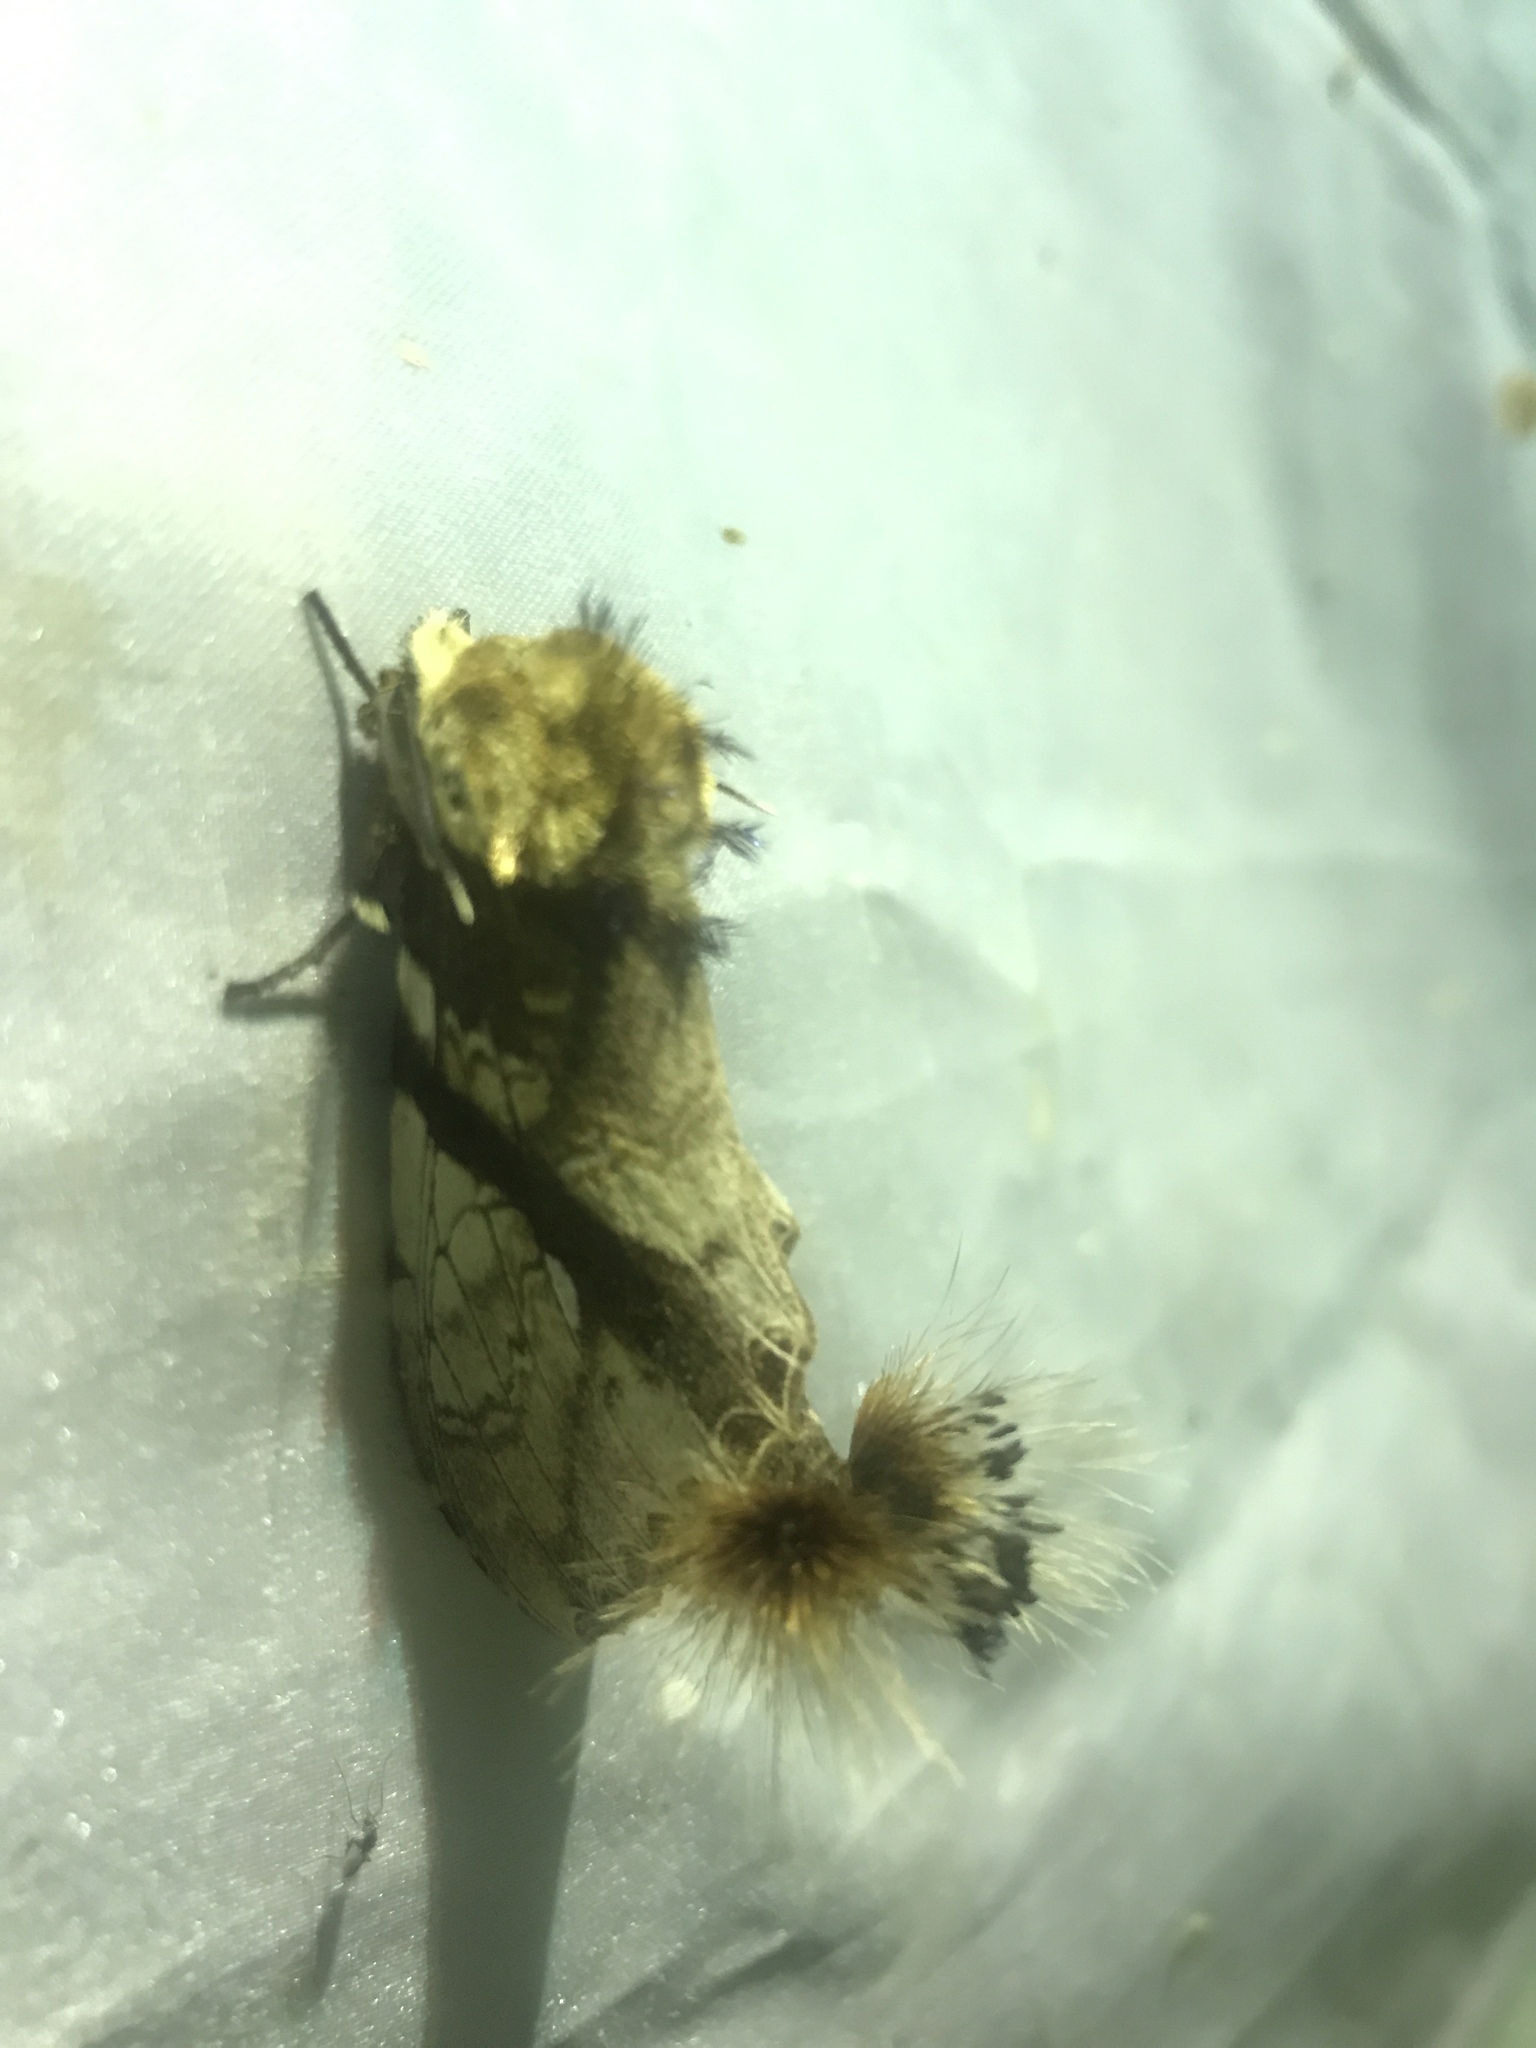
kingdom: Animalia
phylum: Arthropoda
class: Insecta
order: Lepidoptera
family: Notodontidae
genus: Dudusa
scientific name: Dudusa nobilis
